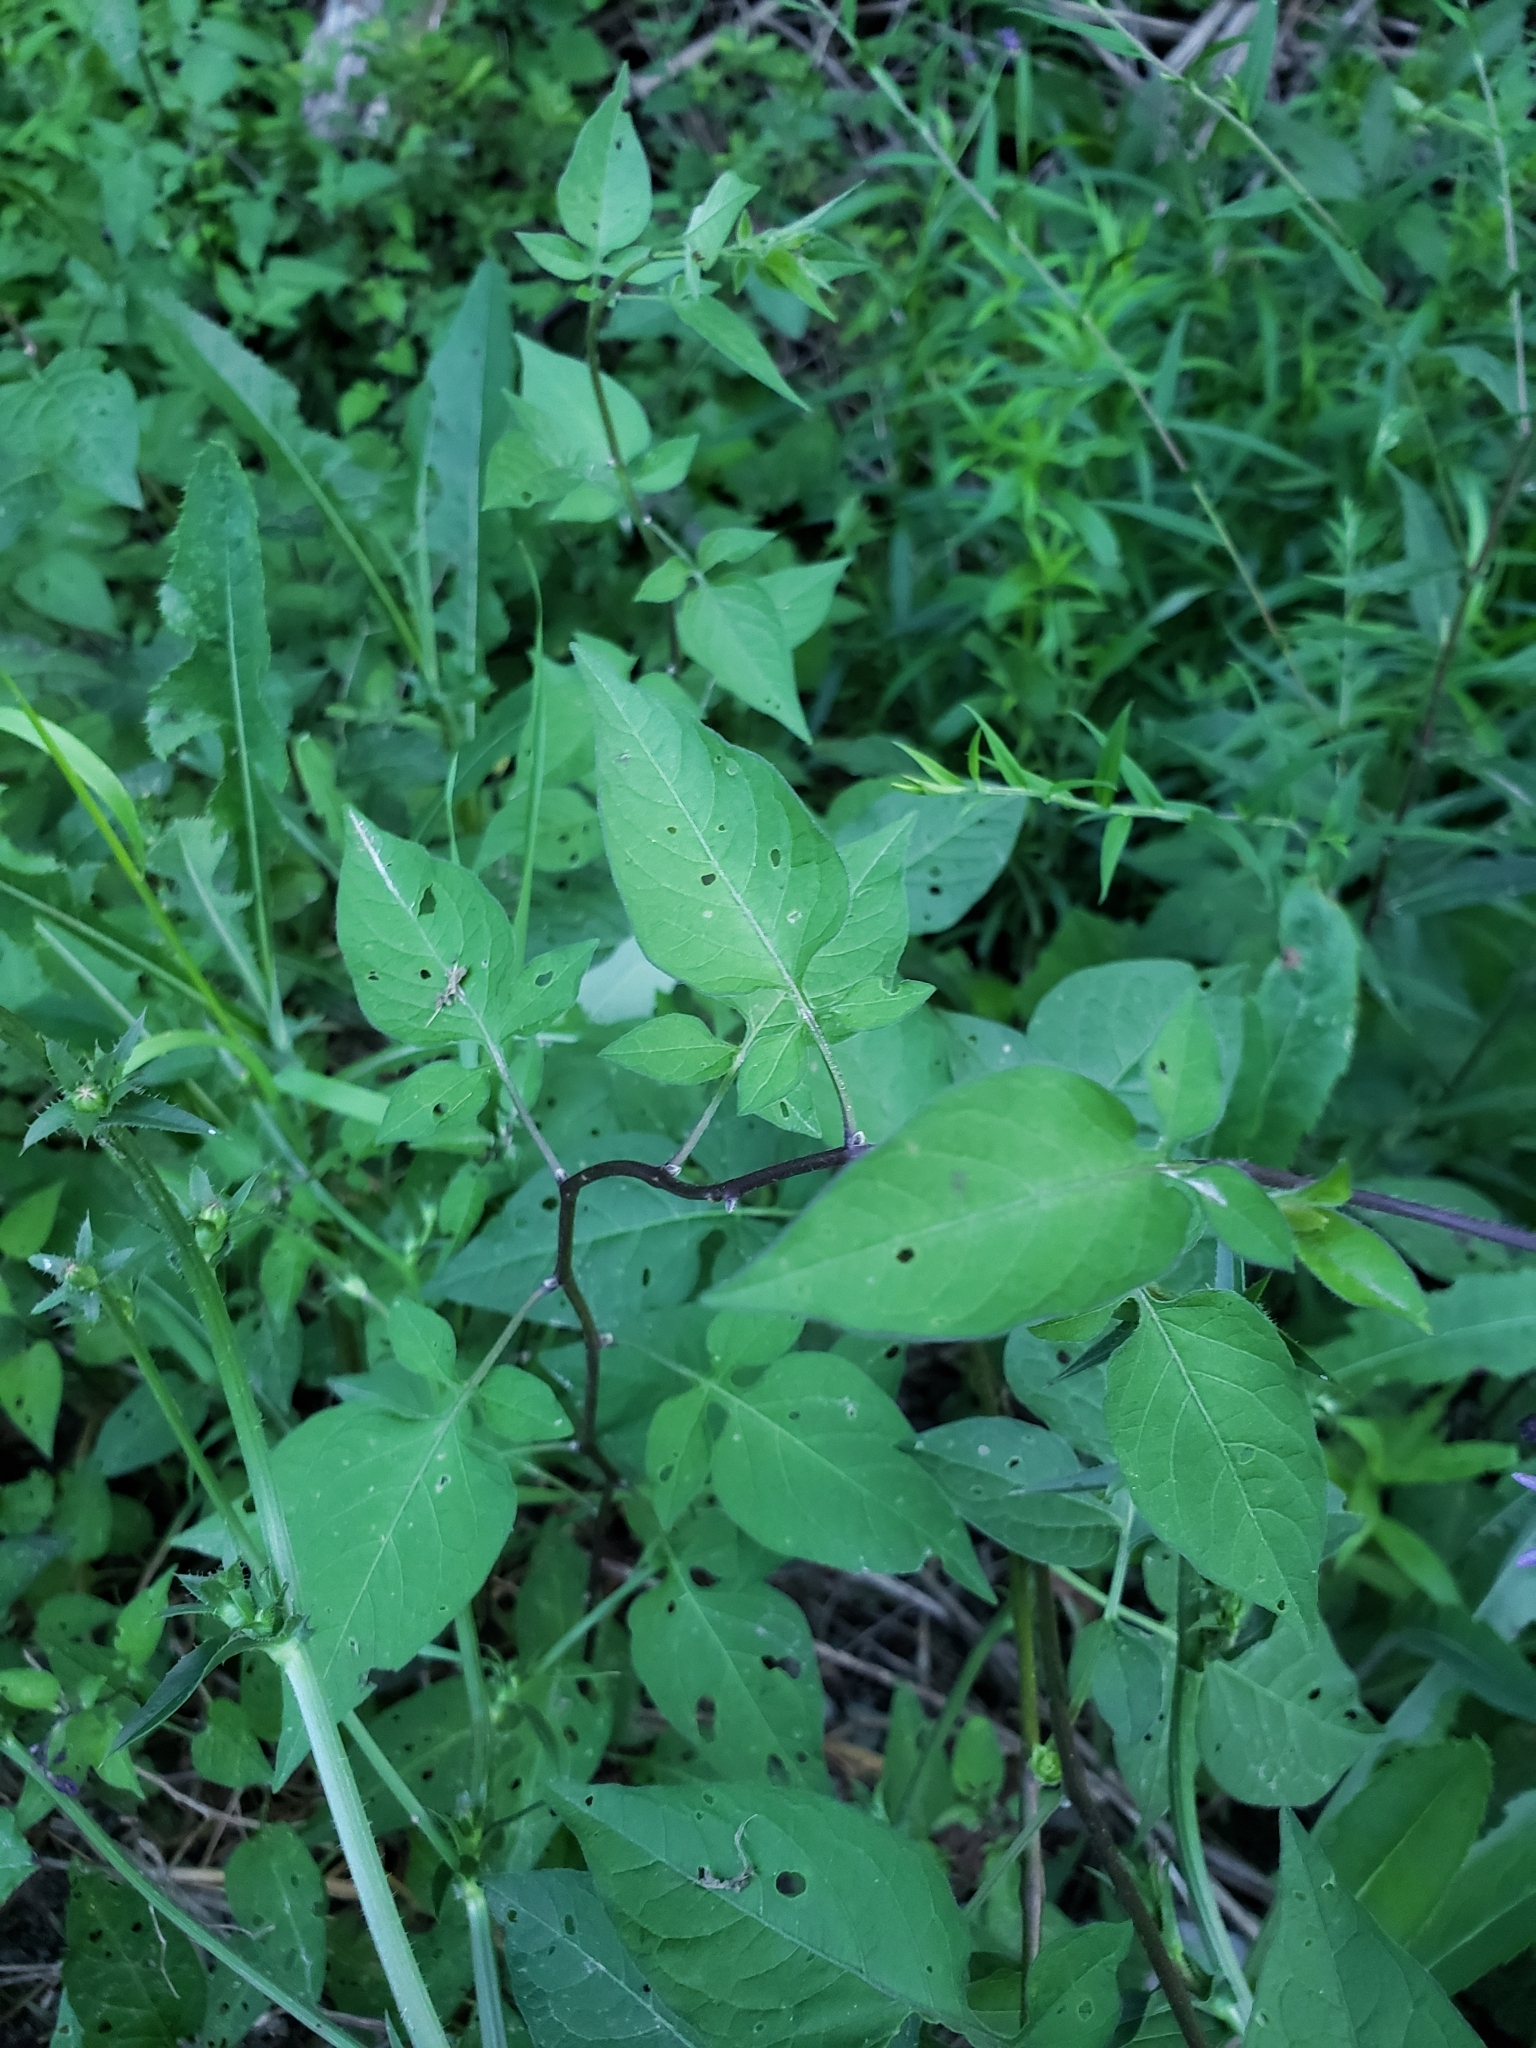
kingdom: Plantae
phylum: Tracheophyta
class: Magnoliopsida
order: Solanales
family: Solanaceae
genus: Solanum
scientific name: Solanum dulcamara
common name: Climbing nightshade
